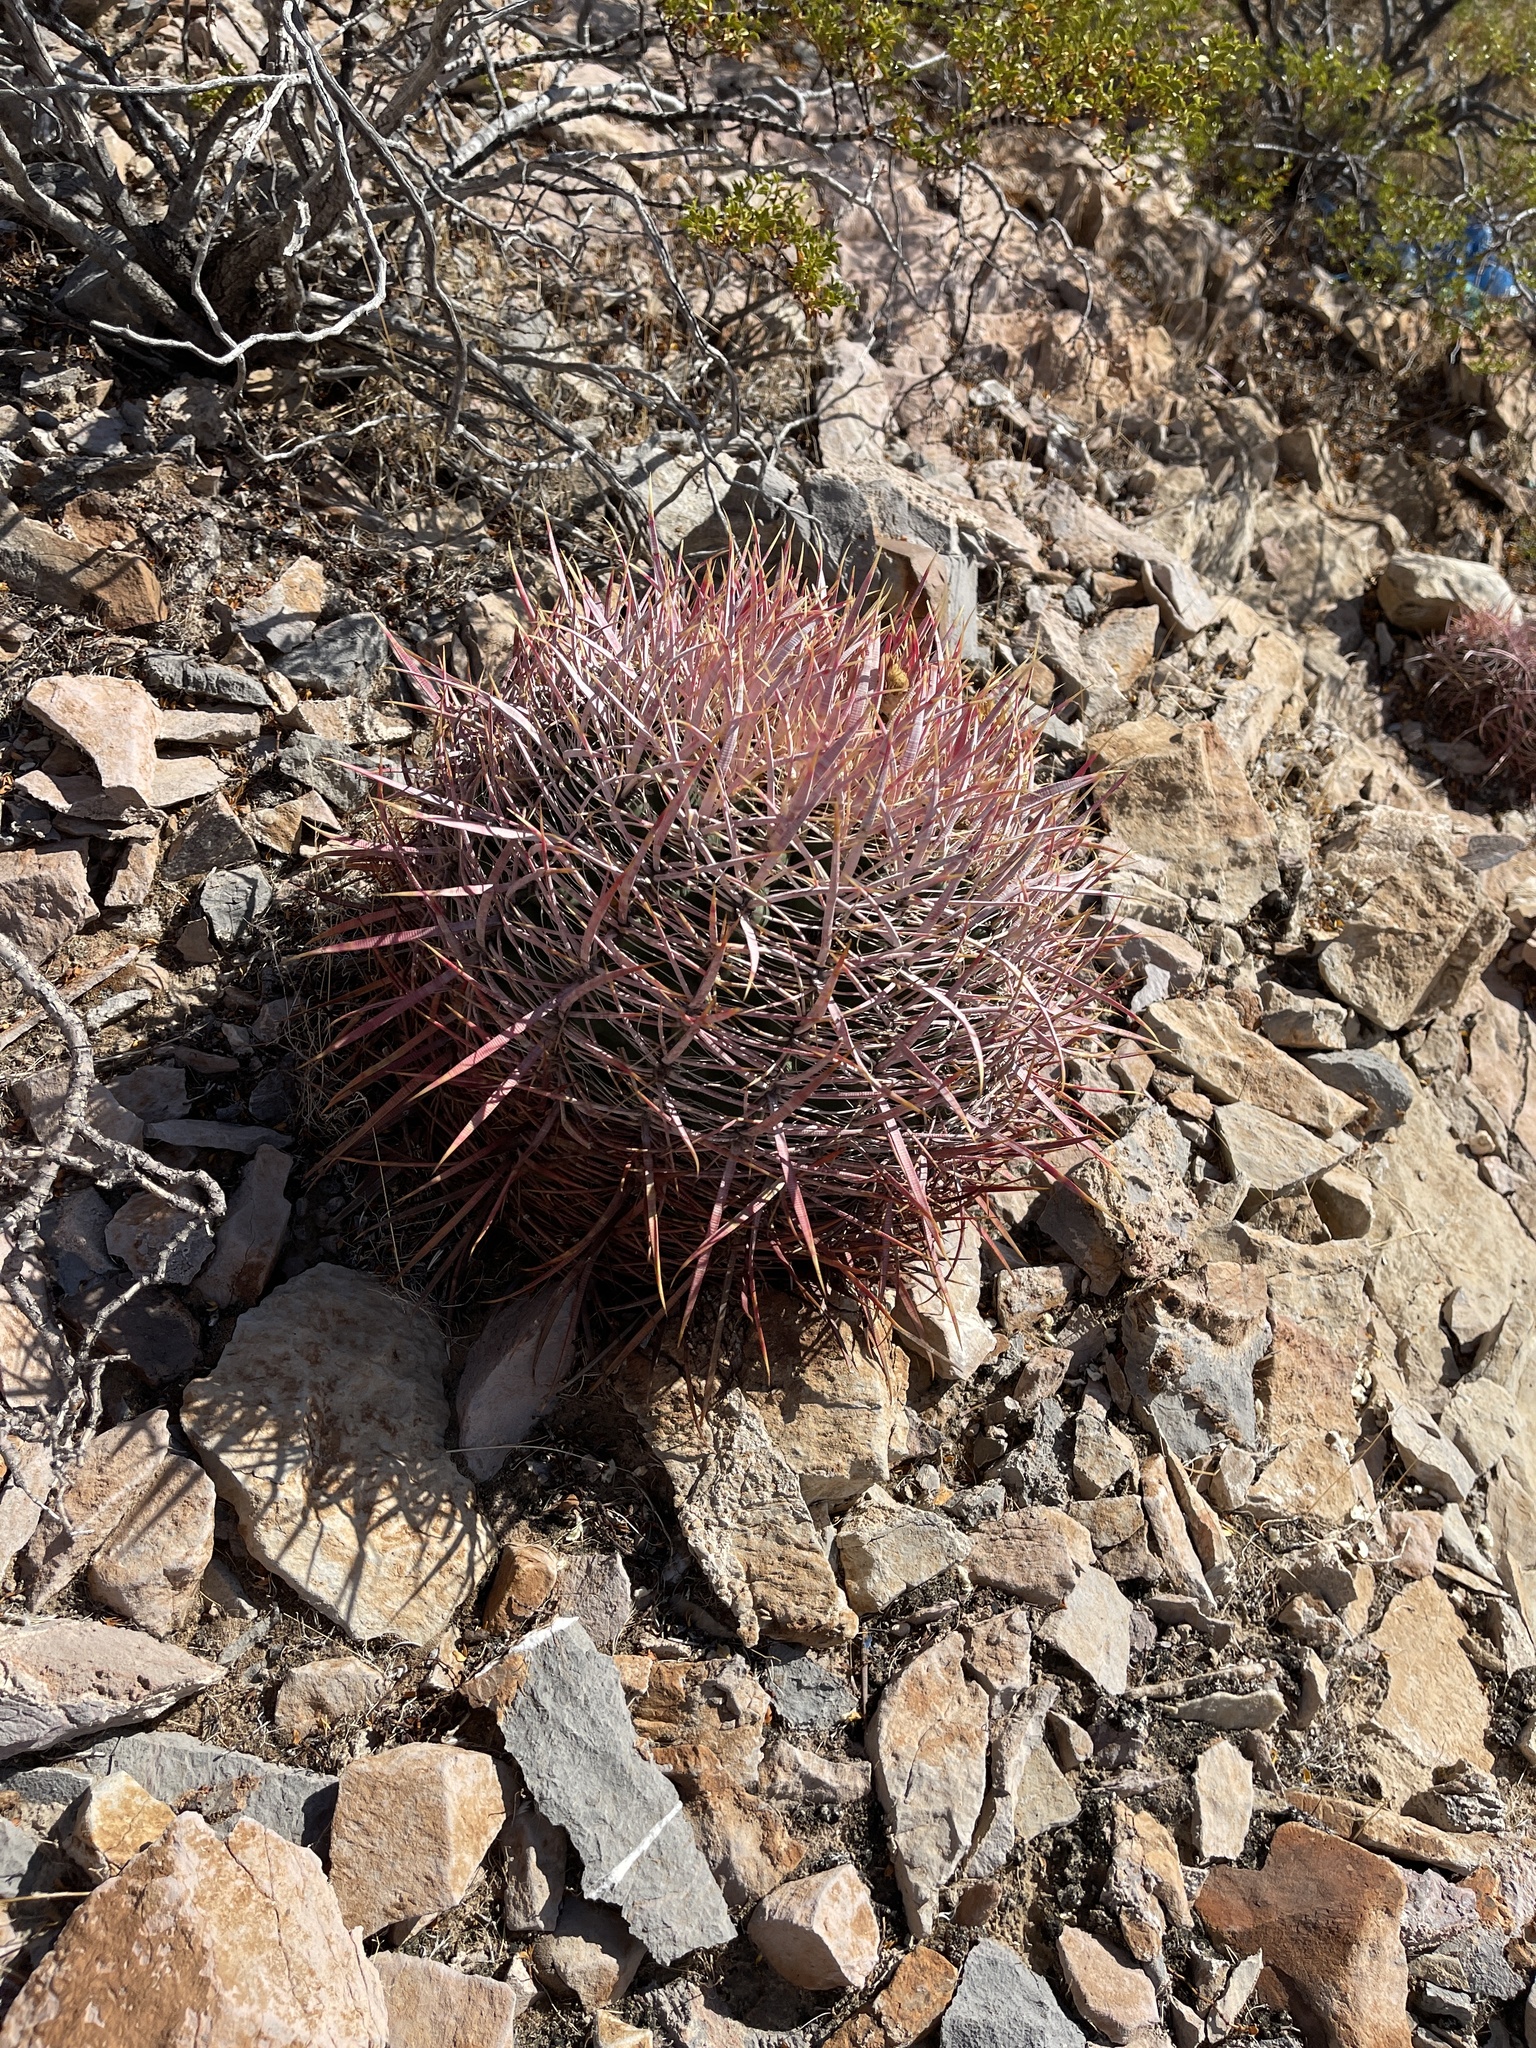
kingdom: Plantae
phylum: Tracheophyta
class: Magnoliopsida
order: Caryophyllales
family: Cactaceae
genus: Ferocactus
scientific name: Ferocactus cylindraceus
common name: California barrel cactus
